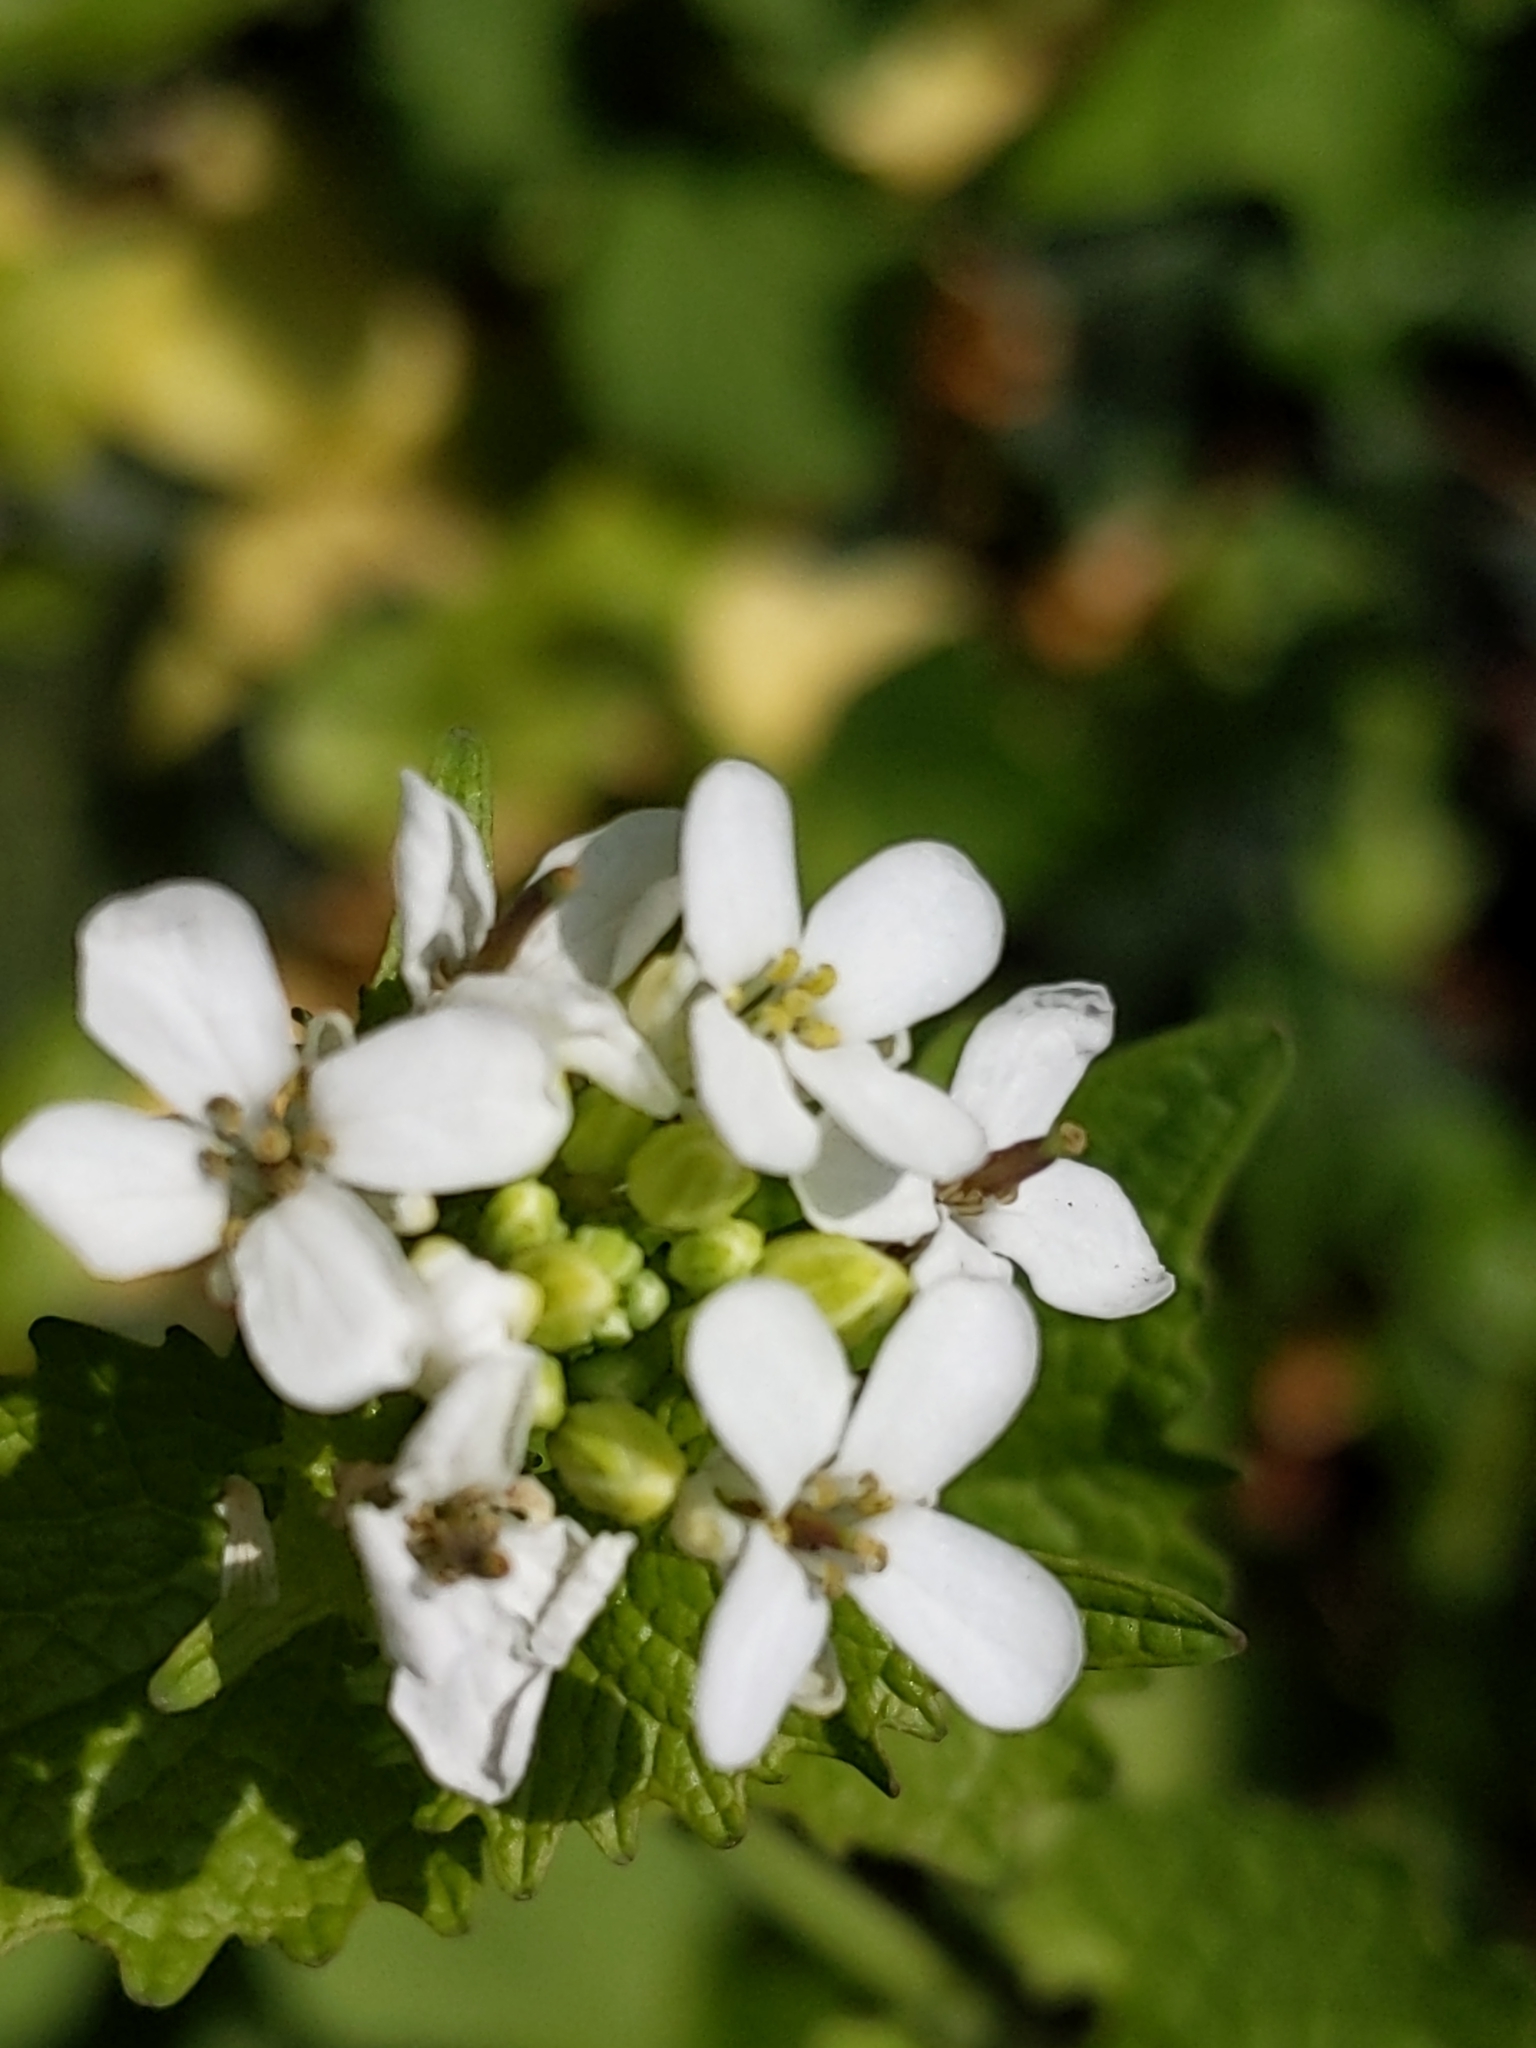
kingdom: Plantae
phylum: Tracheophyta
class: Magnoliopsida
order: Brassicales
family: Brassicaceae
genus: Alliaria
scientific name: Alliaria petiolata
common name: Garlic mustard
